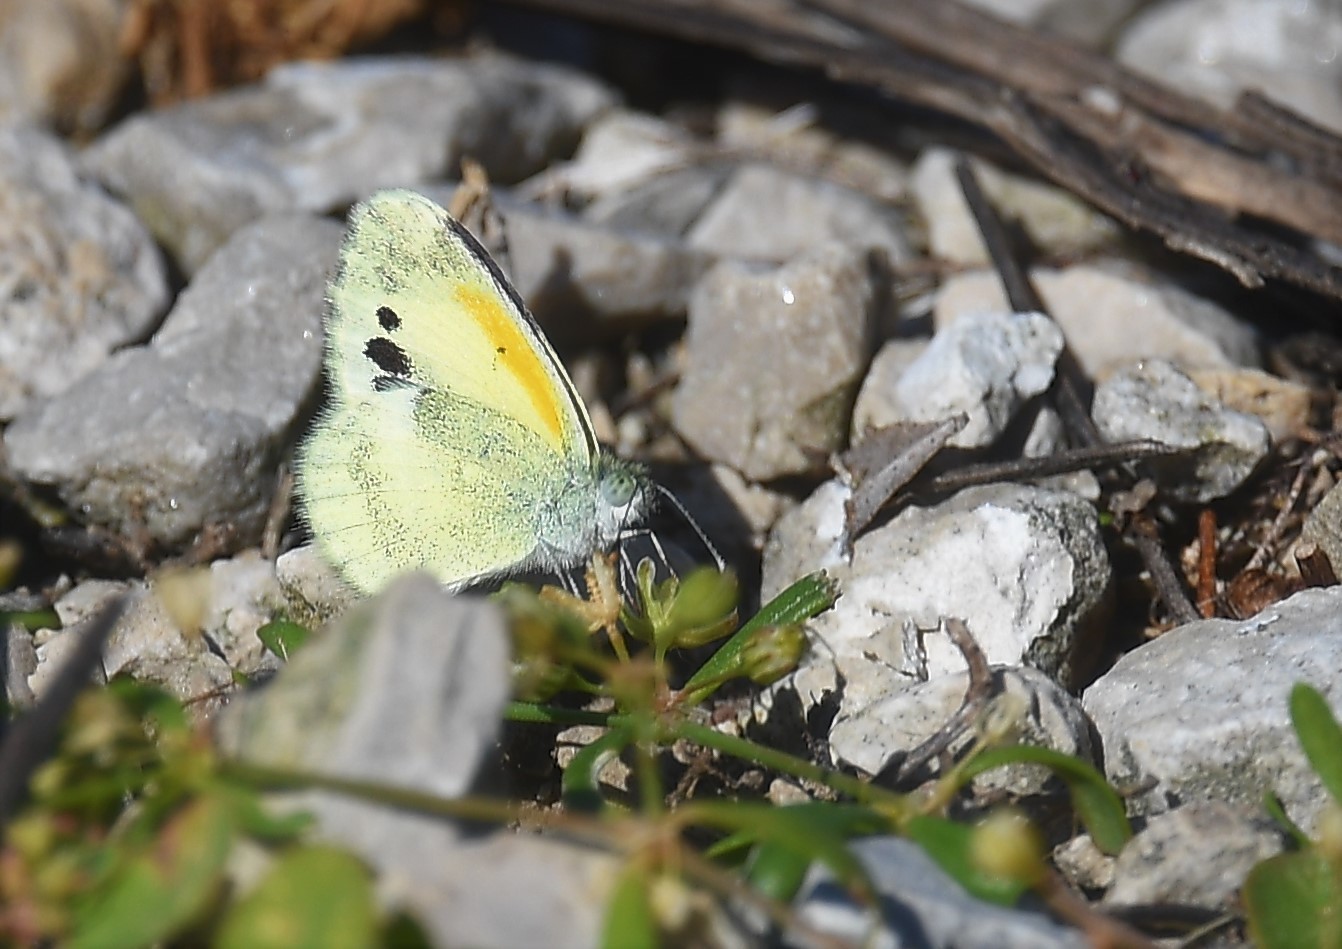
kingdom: Animalia
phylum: Arthropoda
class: Insecta
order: Lepidoptera
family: Pieridae
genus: Nathalis
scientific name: Nathalis iole
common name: Dainty sulphur
